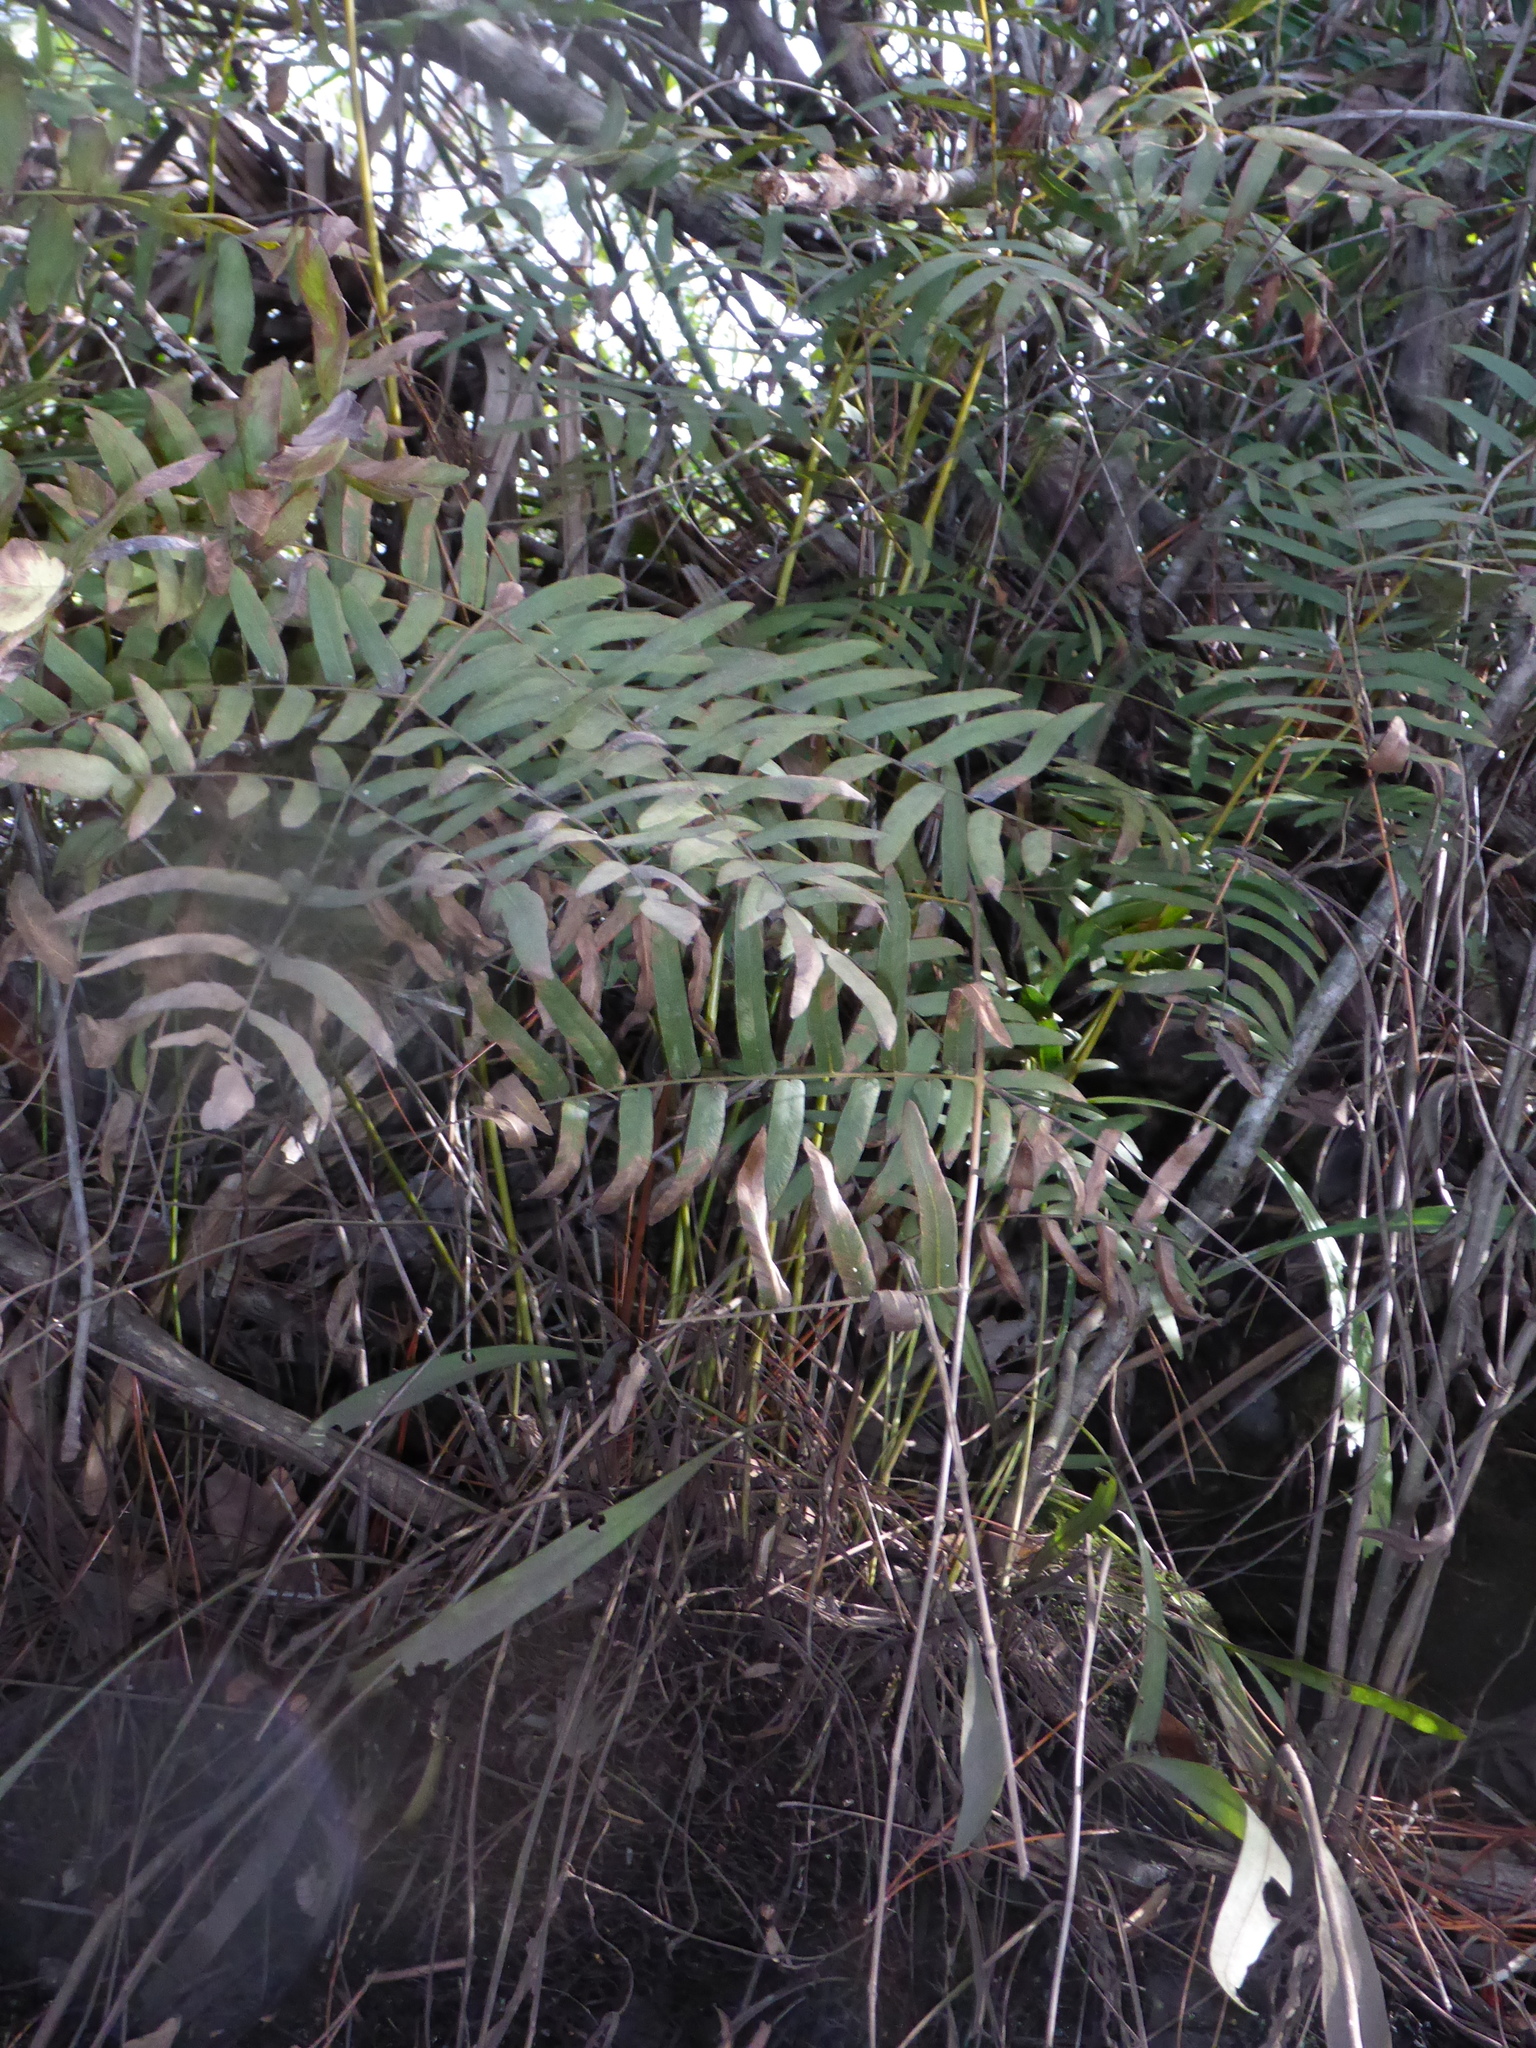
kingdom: Plantae
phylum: Tracheophyta
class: Polypodiopsida
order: Osmundales
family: Osmundaceae
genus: Osmunda
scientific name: Osmunda spectabilis
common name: American royal fern
